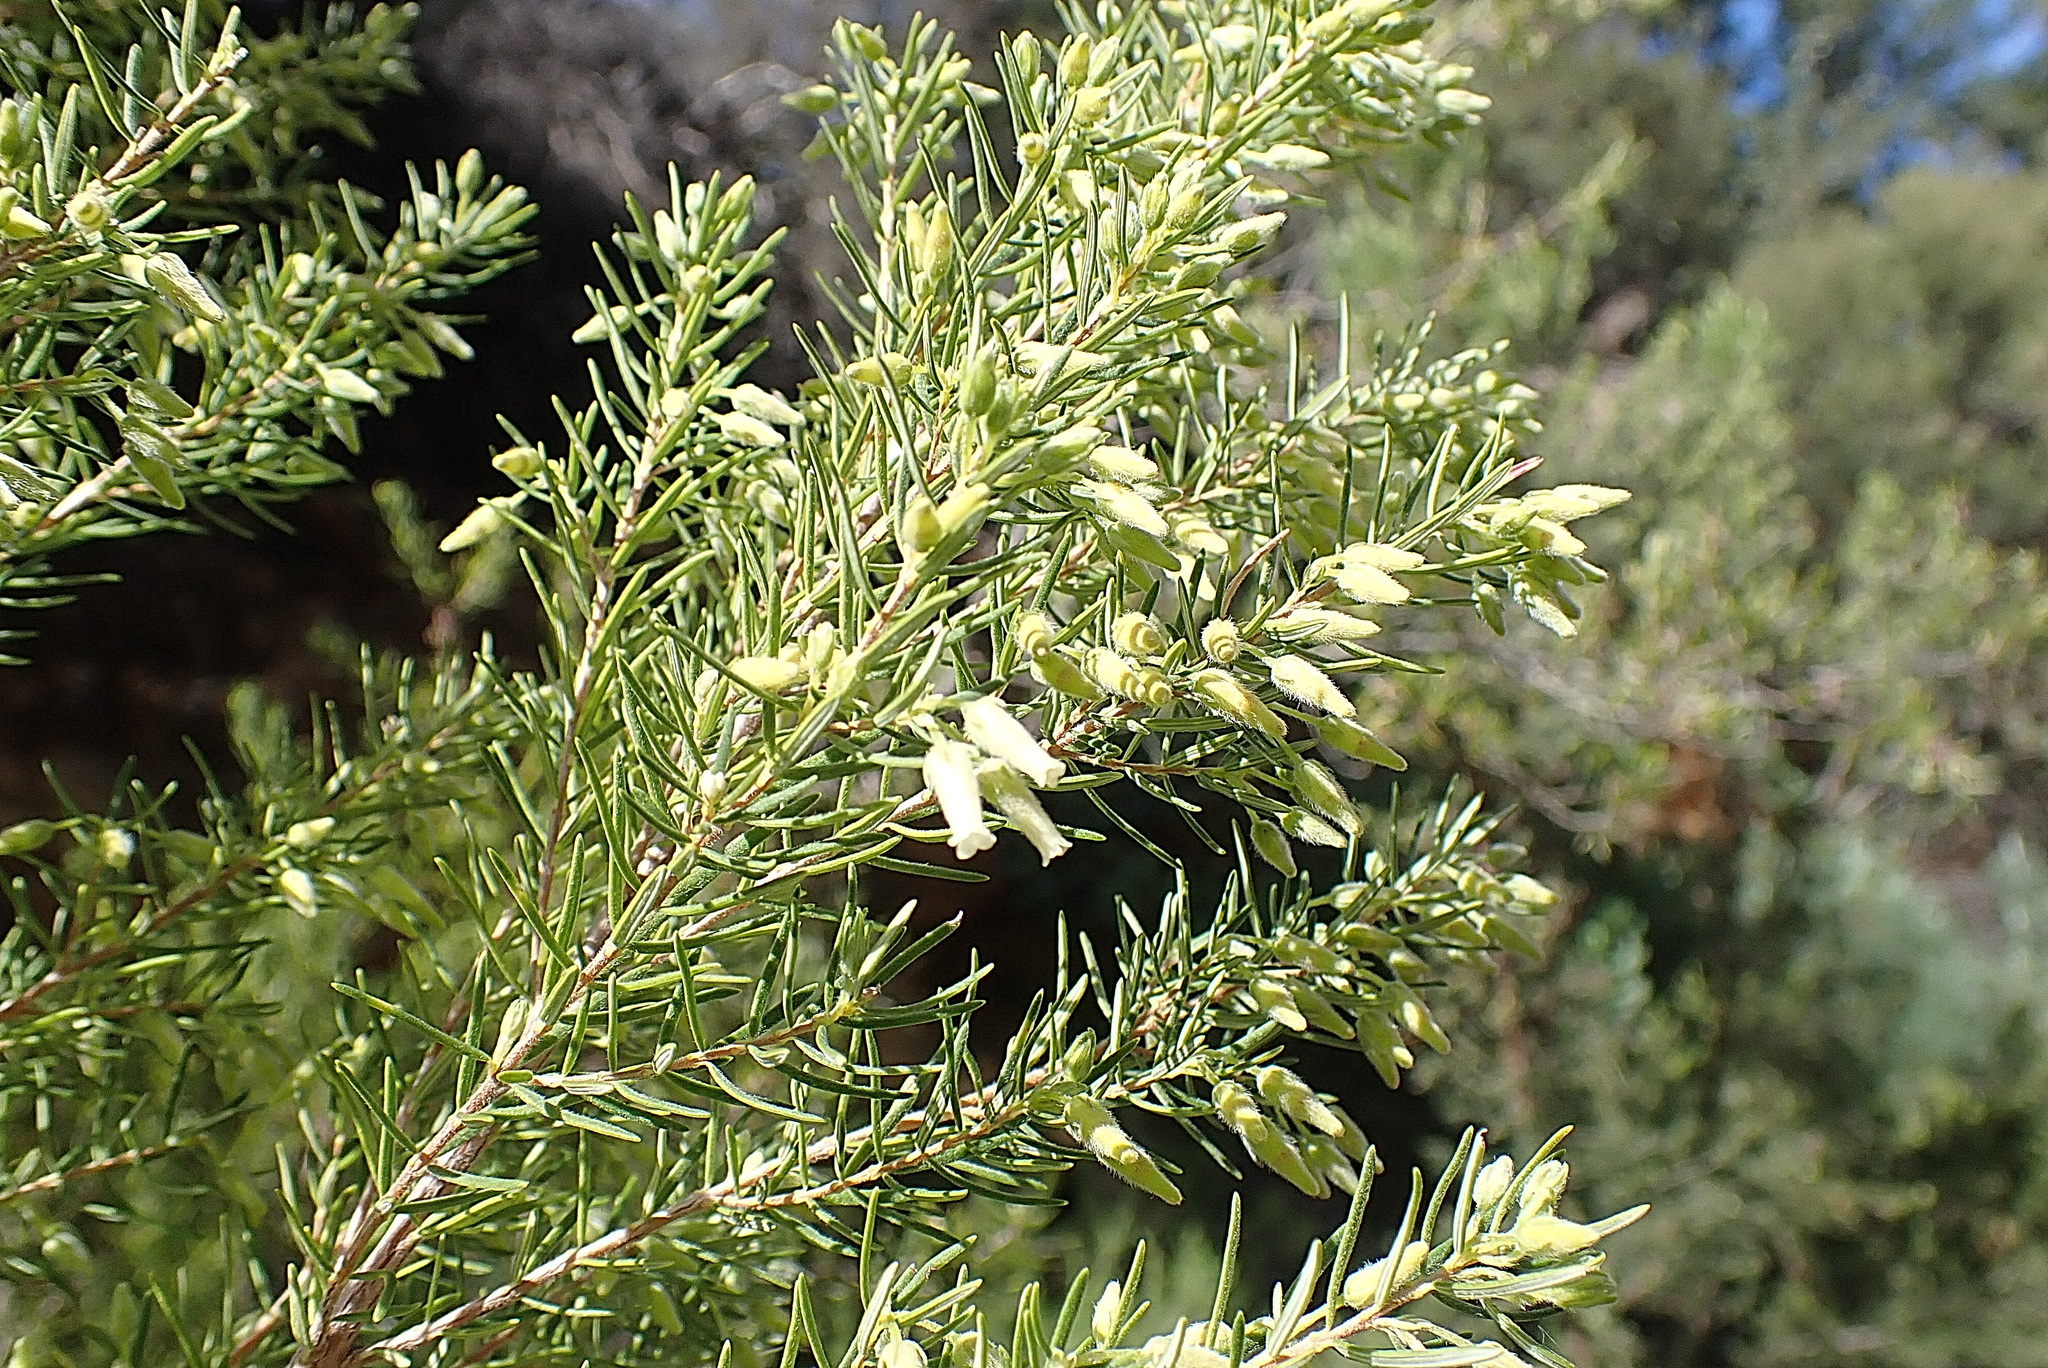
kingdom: Plantae
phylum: Tracheophyta
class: Magnoliopsida
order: Ericales
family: Ericaceae
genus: Erica
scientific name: Erica caffra
